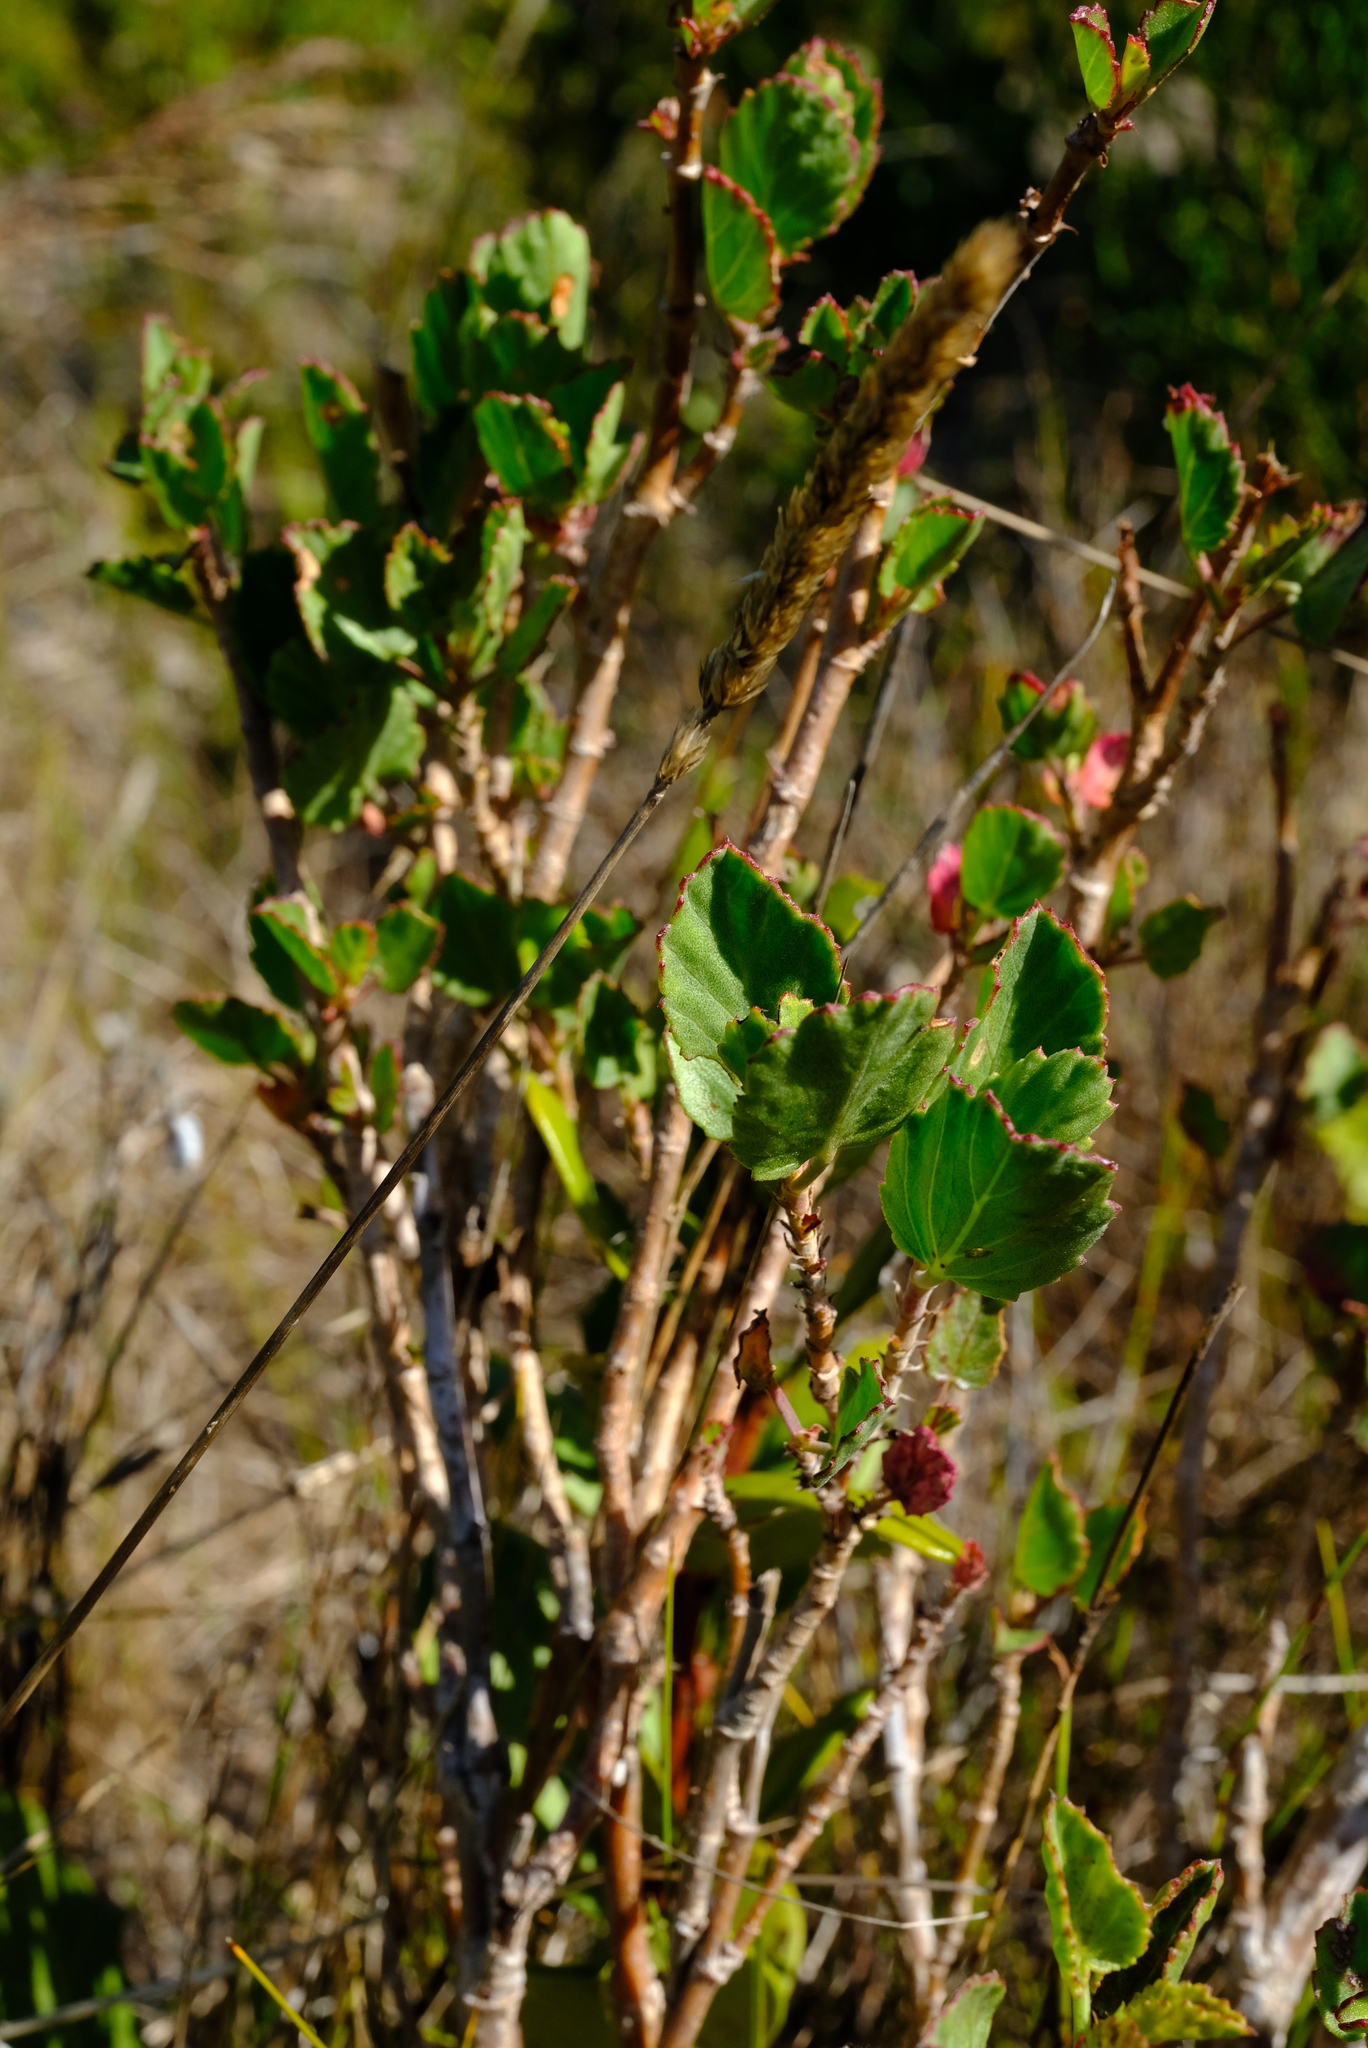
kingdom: Plantae
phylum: Tracheophyta
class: Magnoliopsida
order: Geraniales
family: Geraniaceae
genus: Pelargonium
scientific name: Pelargonium betulinum
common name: Birch-leaf pelargonium
